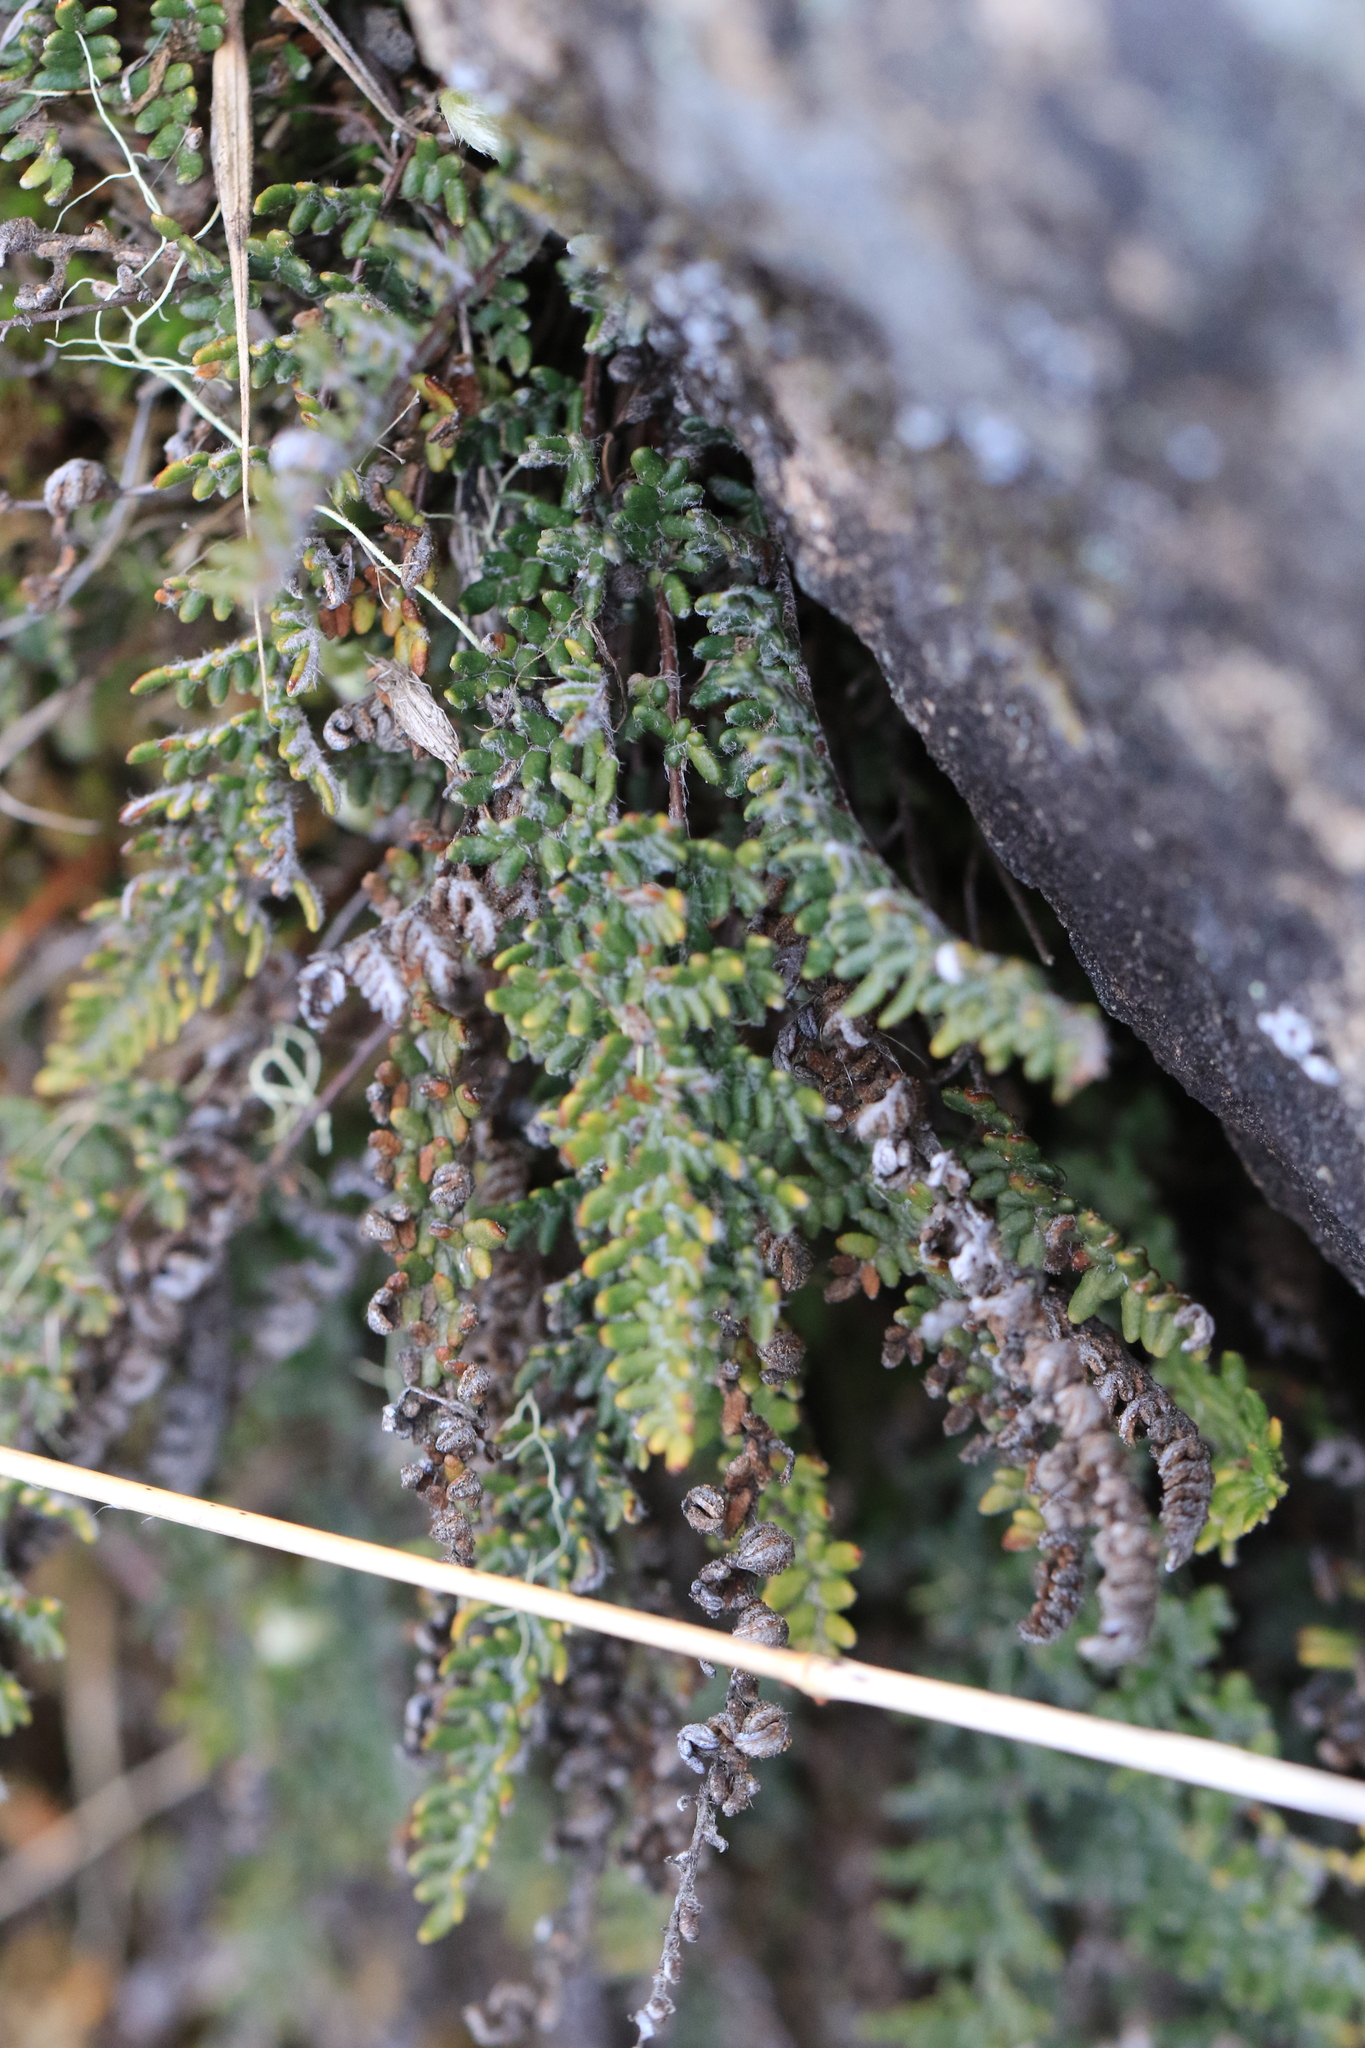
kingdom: Plantae
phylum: Tracheophyta
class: Polypodiopsida
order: Polypodiales
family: Pteridaceae
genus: Myriopteris
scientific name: Myriopteris gracillima
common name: Lace fern
